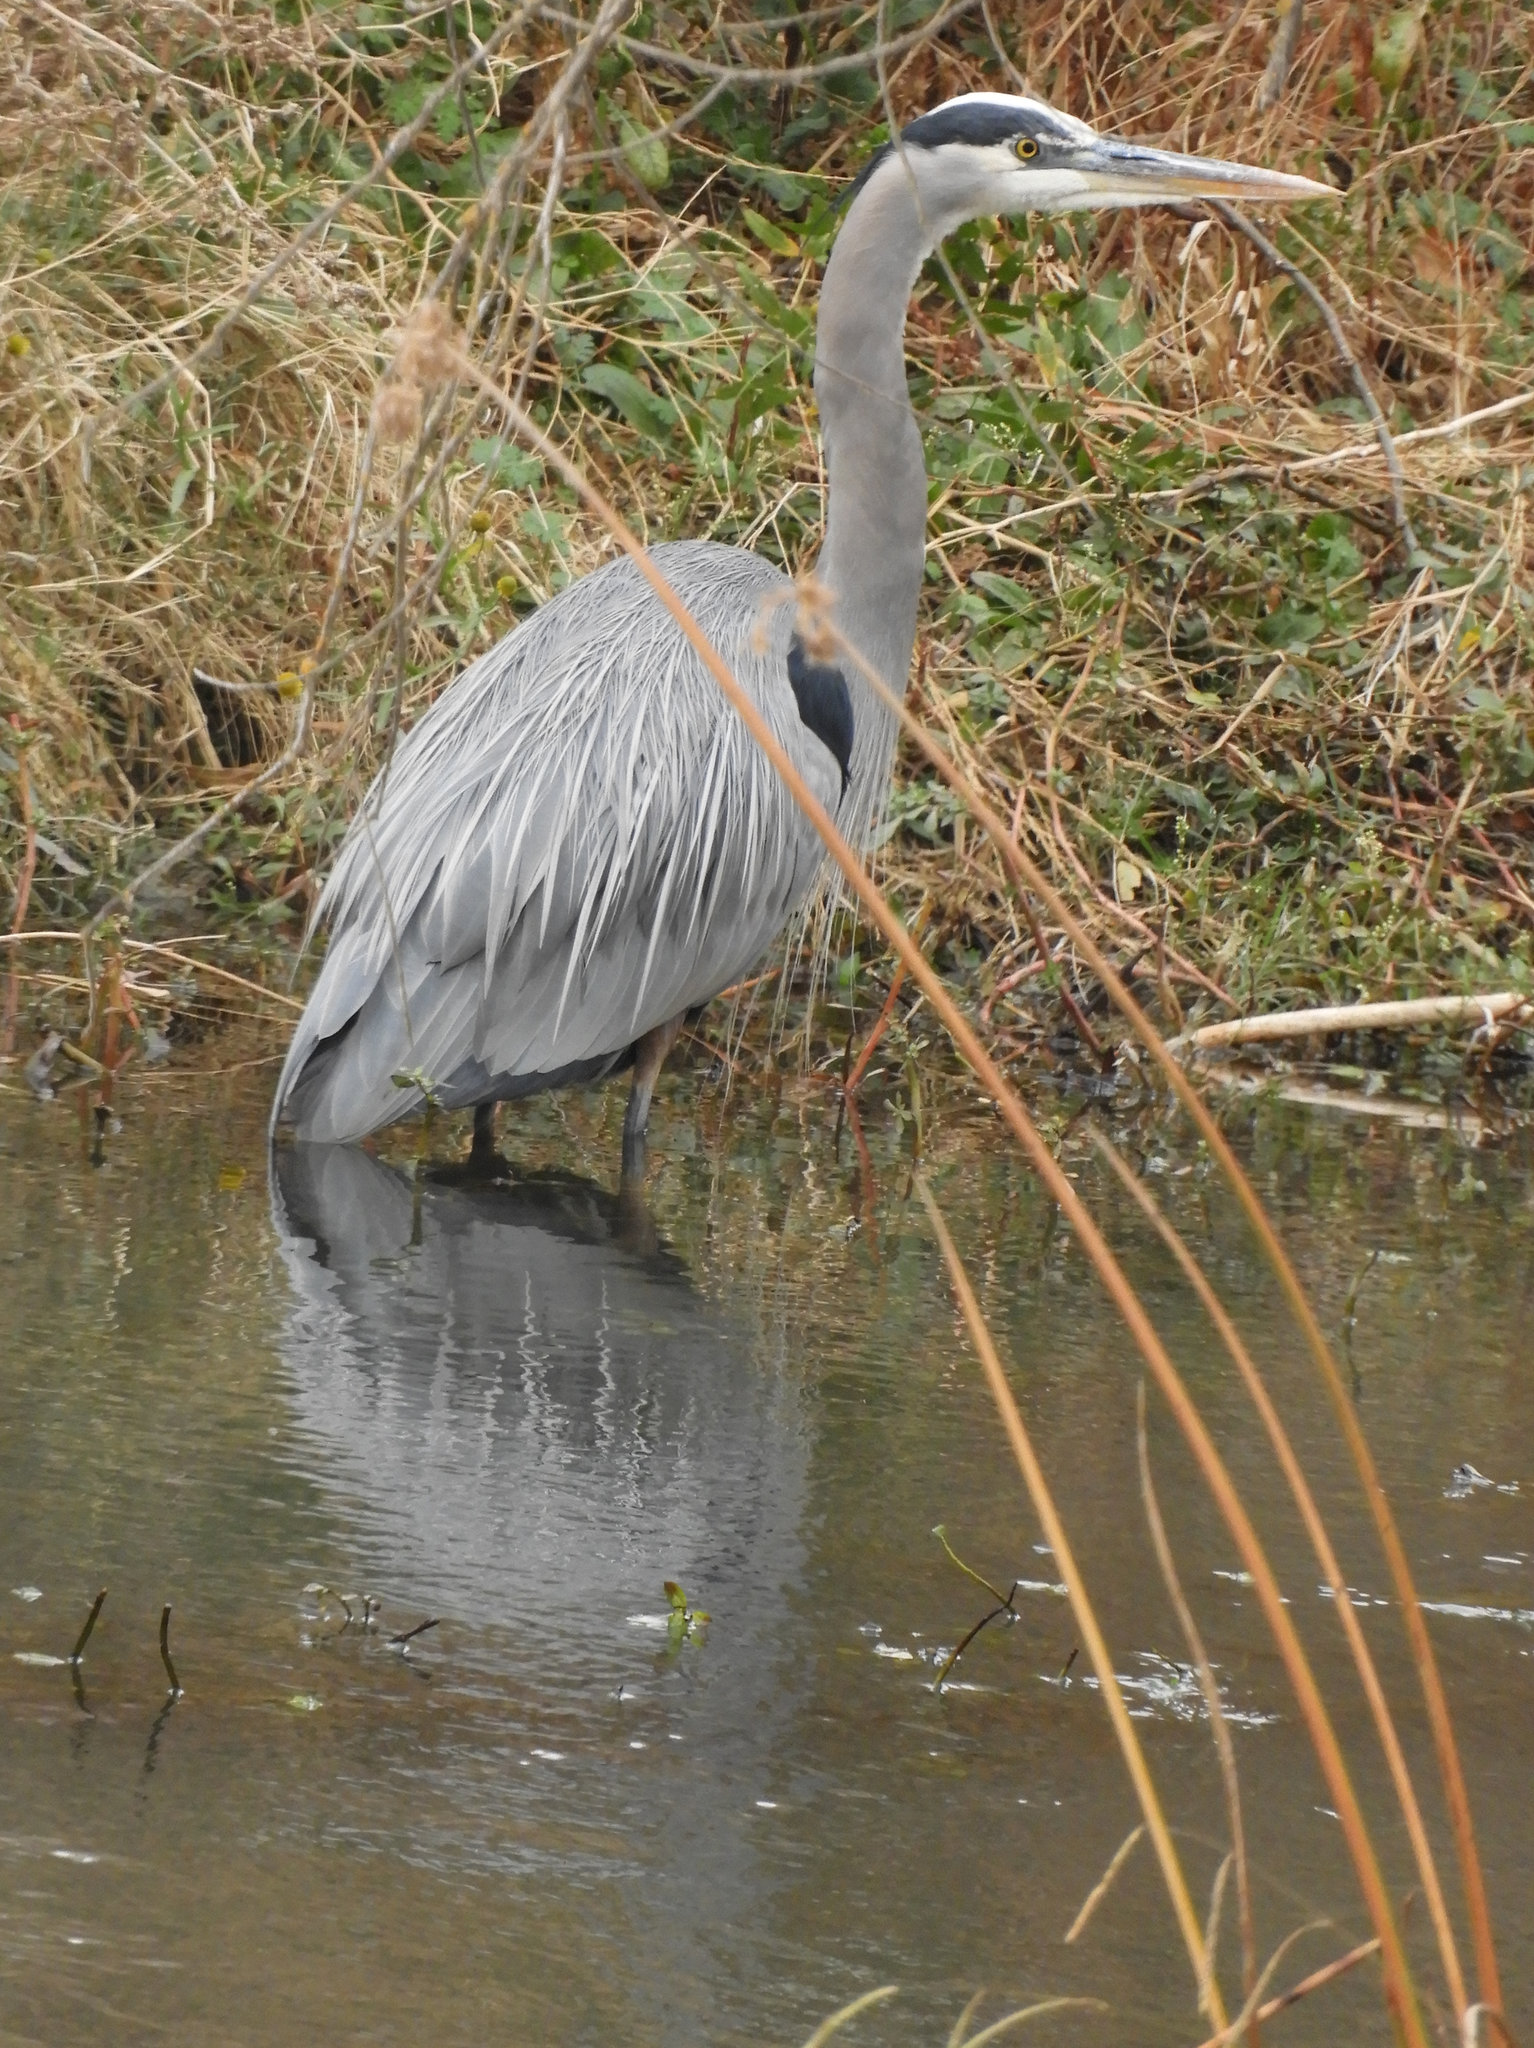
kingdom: Animalia
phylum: Chordata
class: Aves
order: Pelecaniformes
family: Ardeidae
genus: Ardea
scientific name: Ardea herodias
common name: Great blue heron
